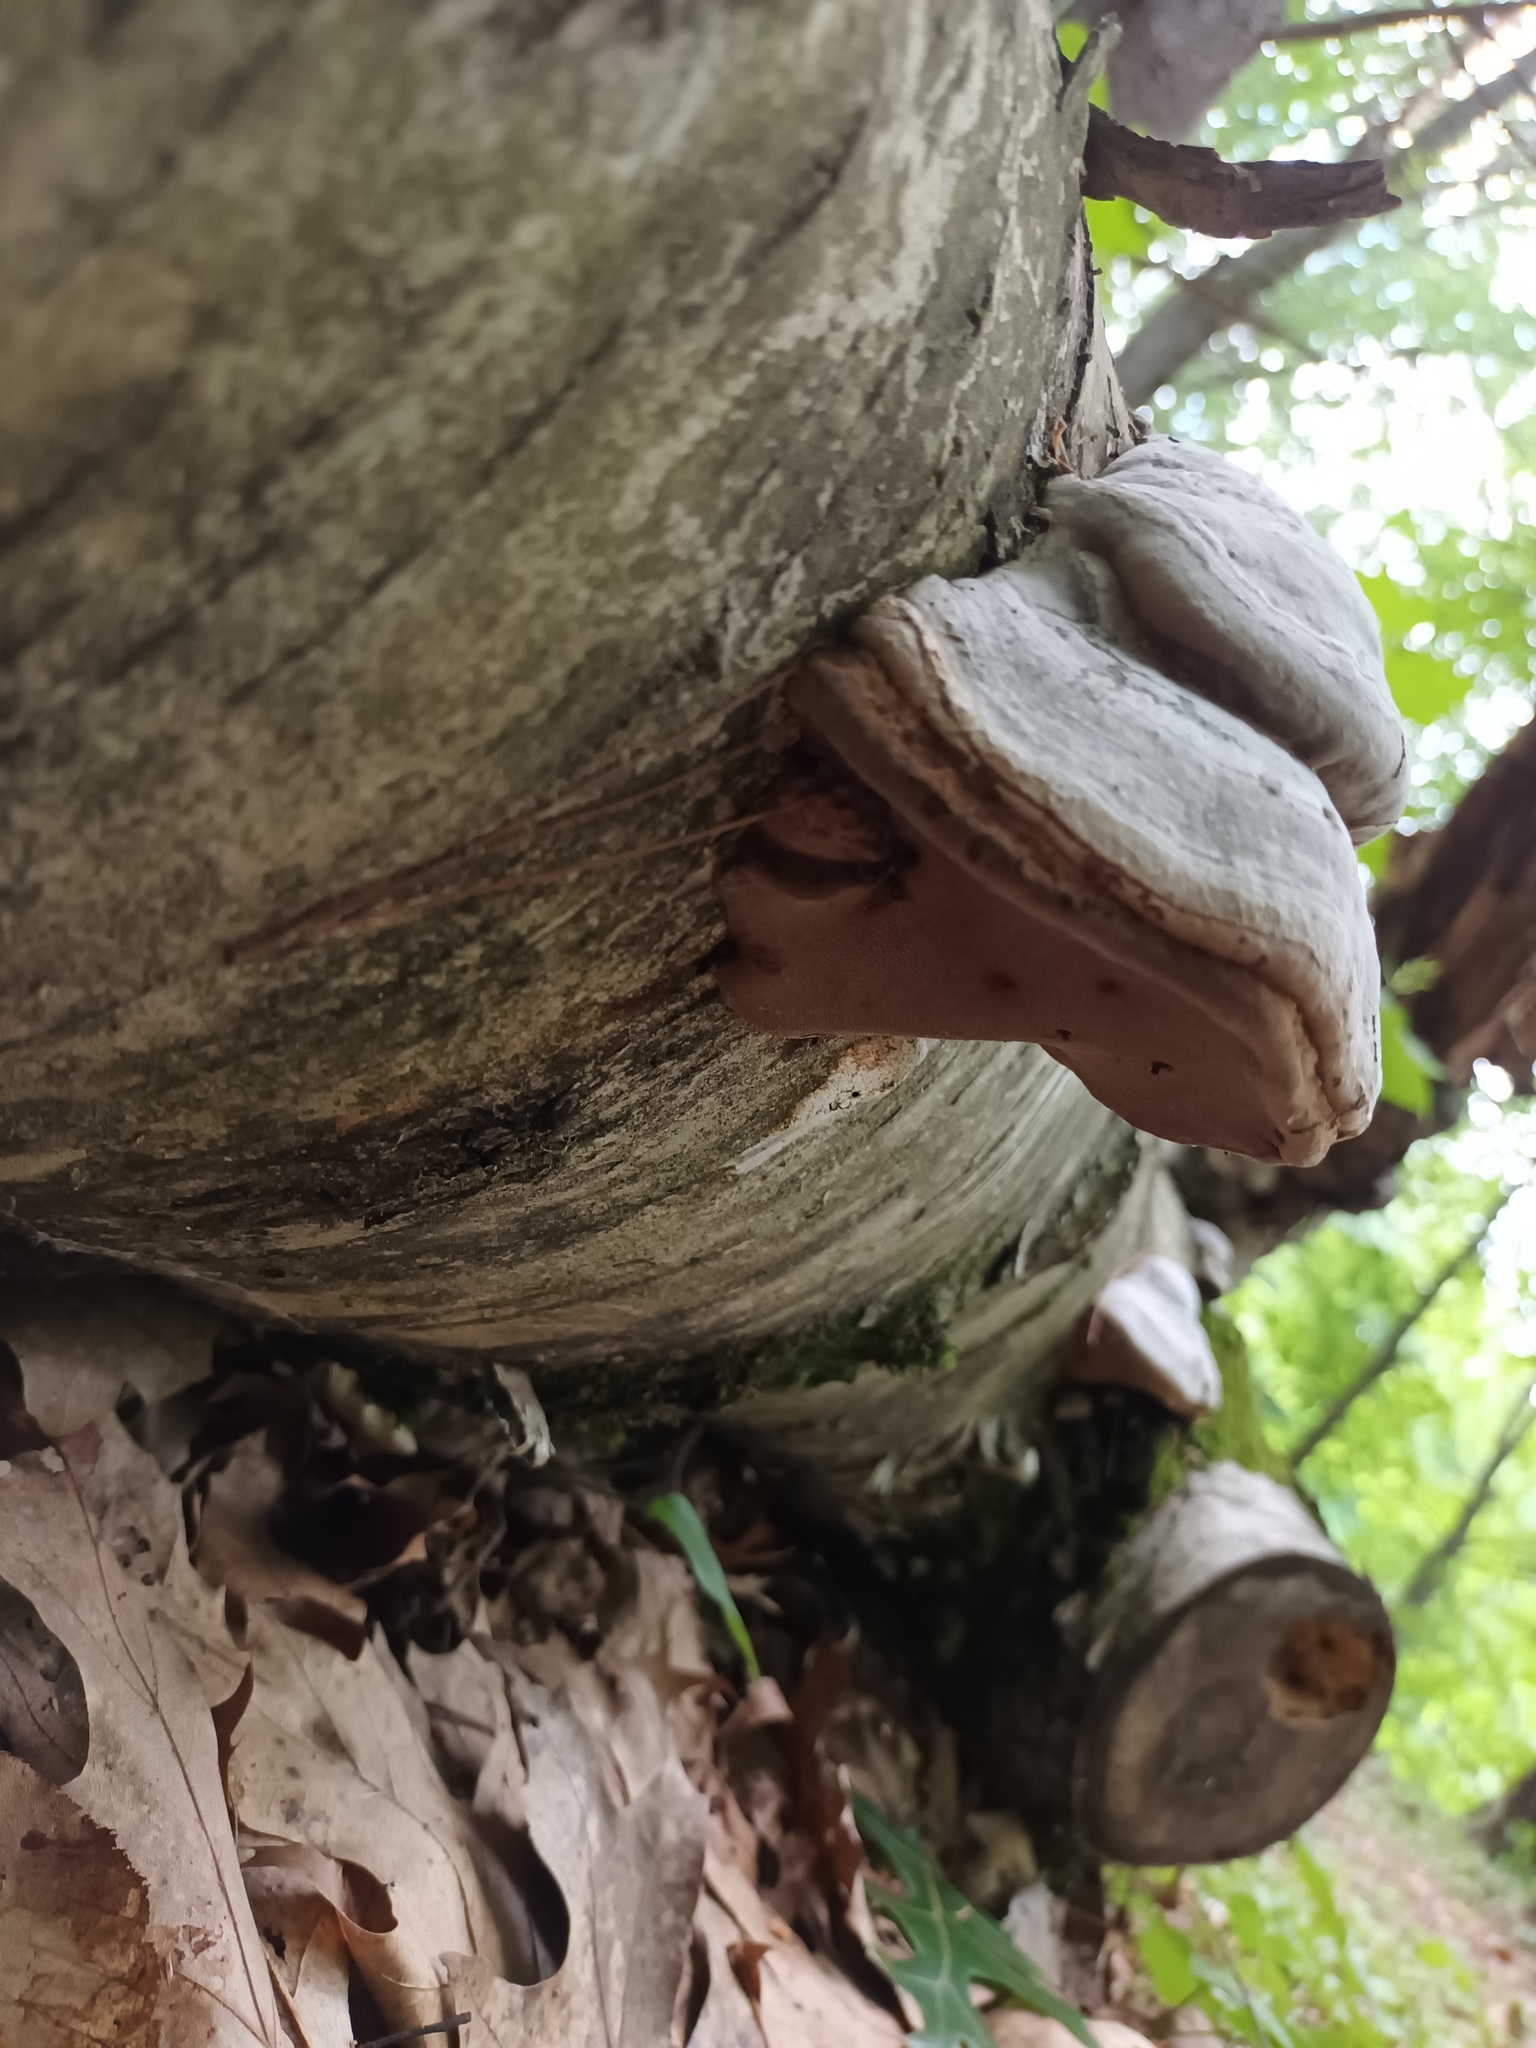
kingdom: Fungi
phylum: Basidiomycota
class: Agaricomycetes
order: Polyporales
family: Polyporaceae
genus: Fomes
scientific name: Fomes fomentarius
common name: Hoof fungus
